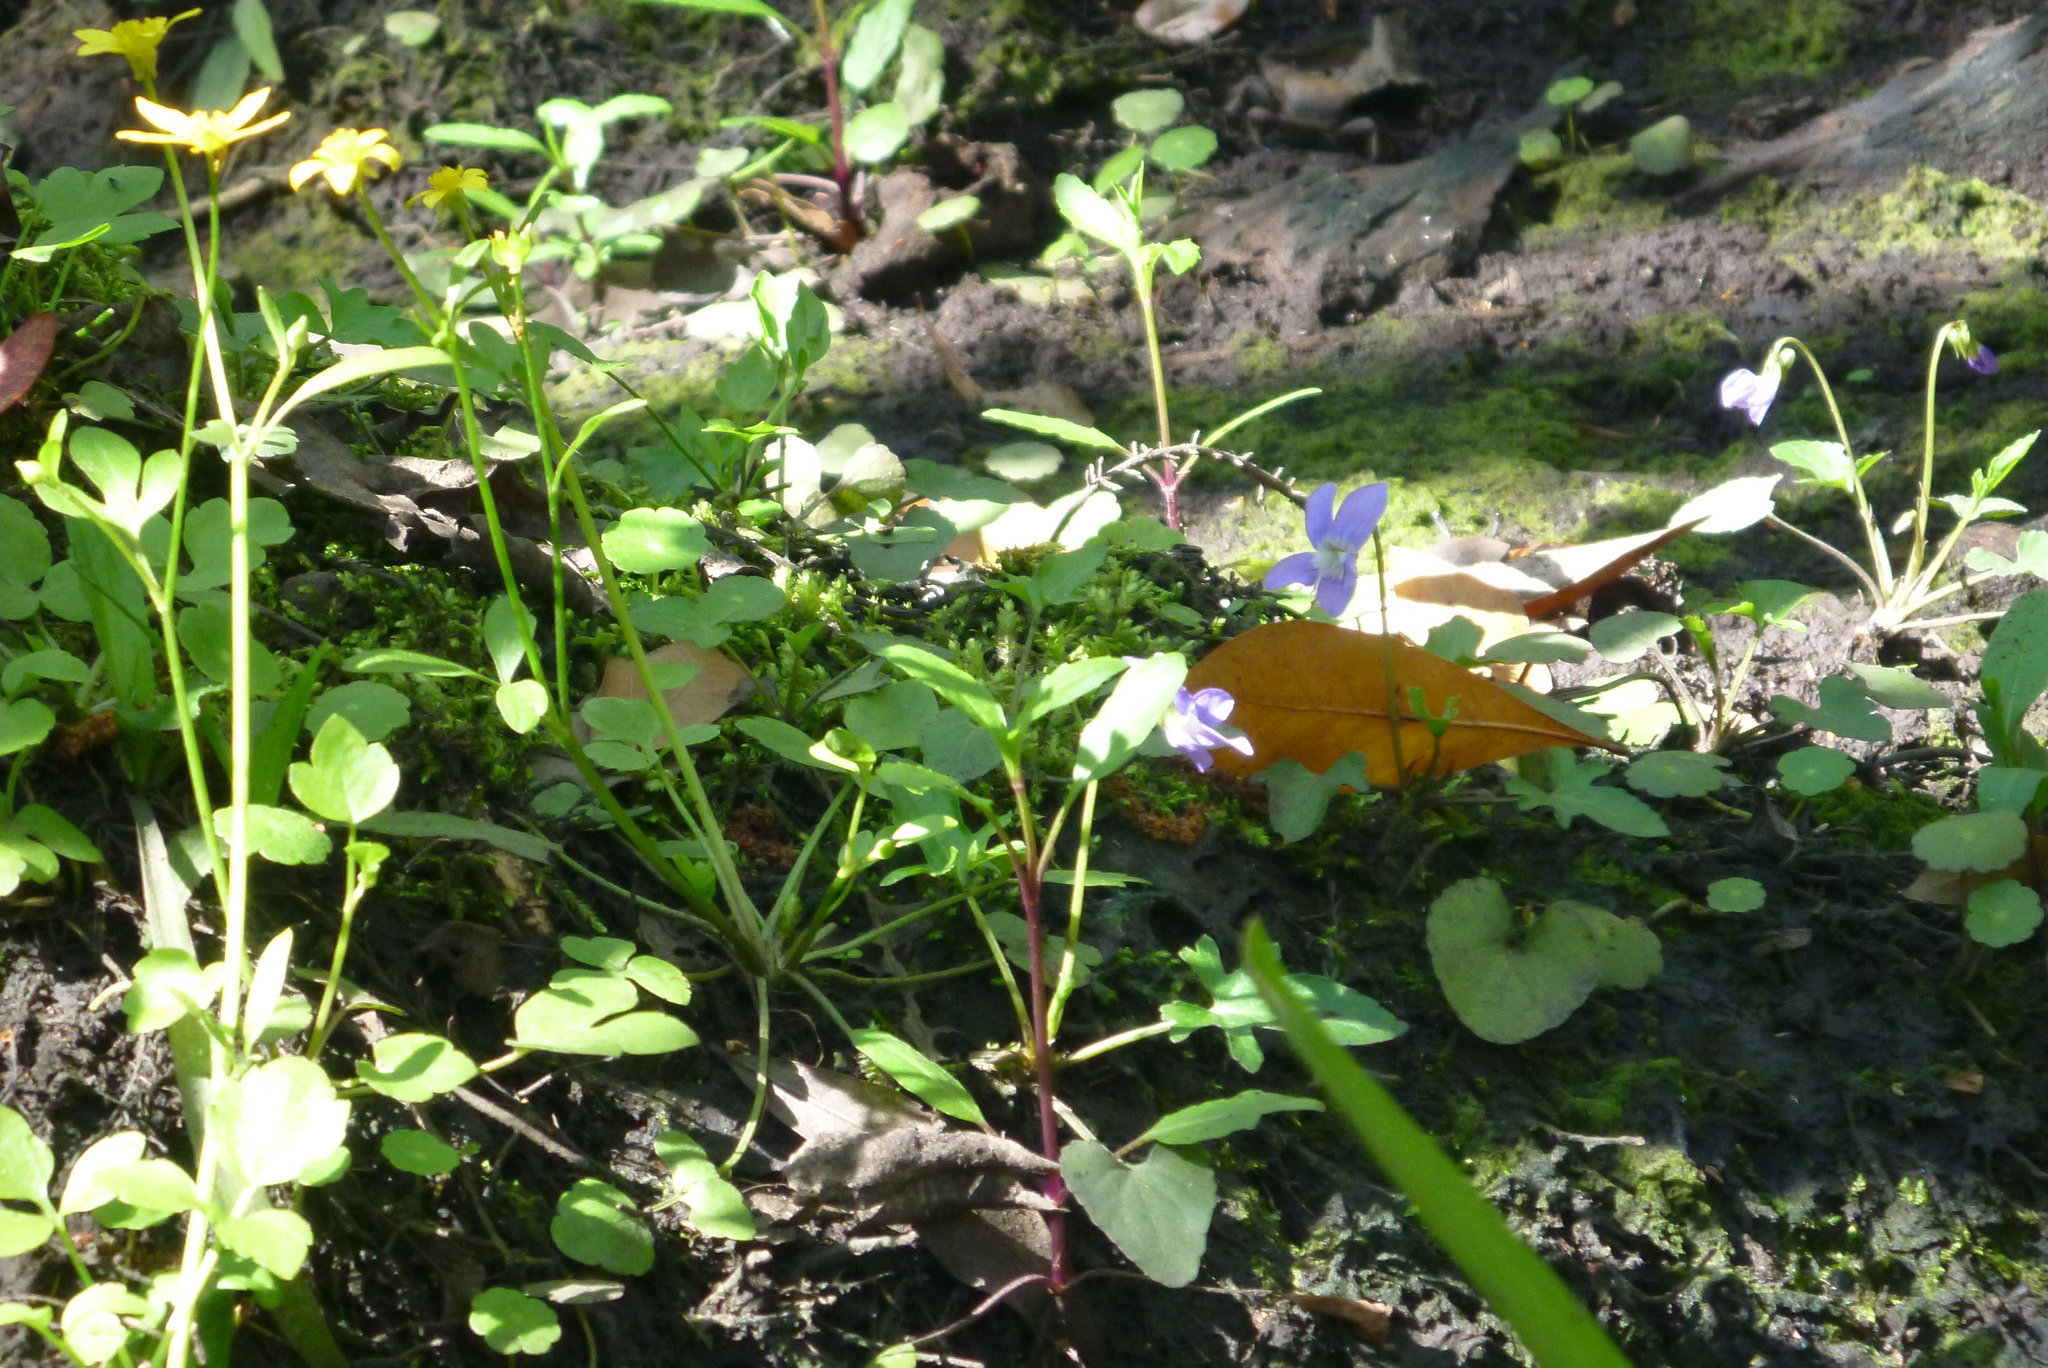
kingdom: Plantae
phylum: Tracheophyta
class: Magnoliopsida
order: Malpighiales
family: Violaceae
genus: Viola
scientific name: Viola edulis
